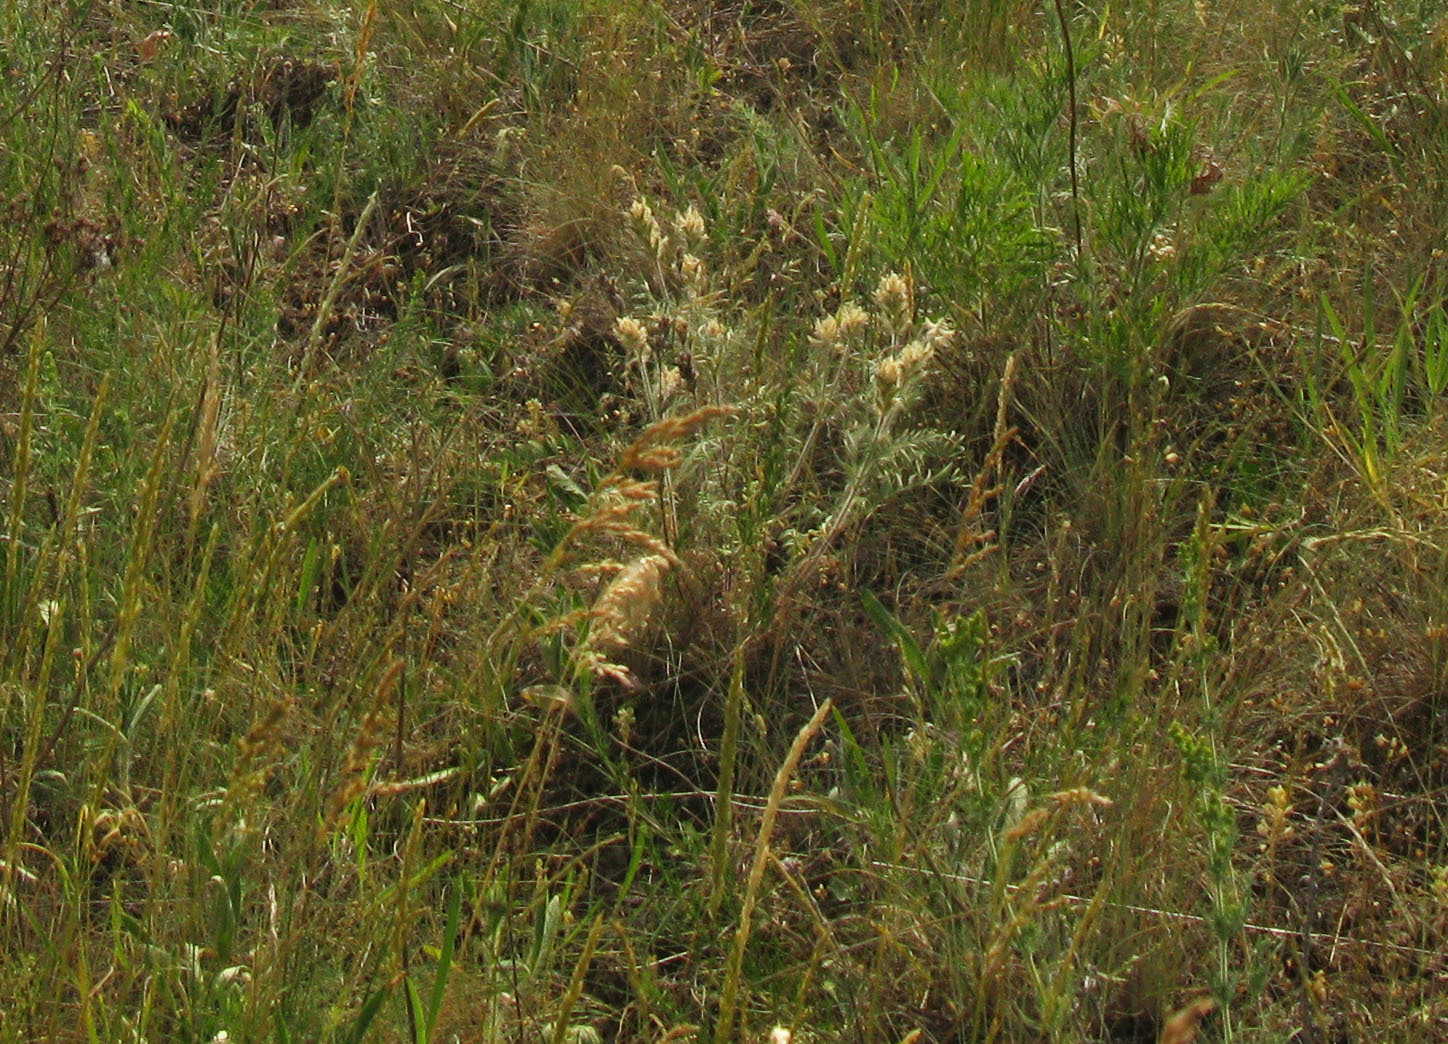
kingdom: Plantae
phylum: Tracheophyta
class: Magnoliopsida
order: Fabales
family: Fabaceae
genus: Oxytropis
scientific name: Oxytropis pilosa
